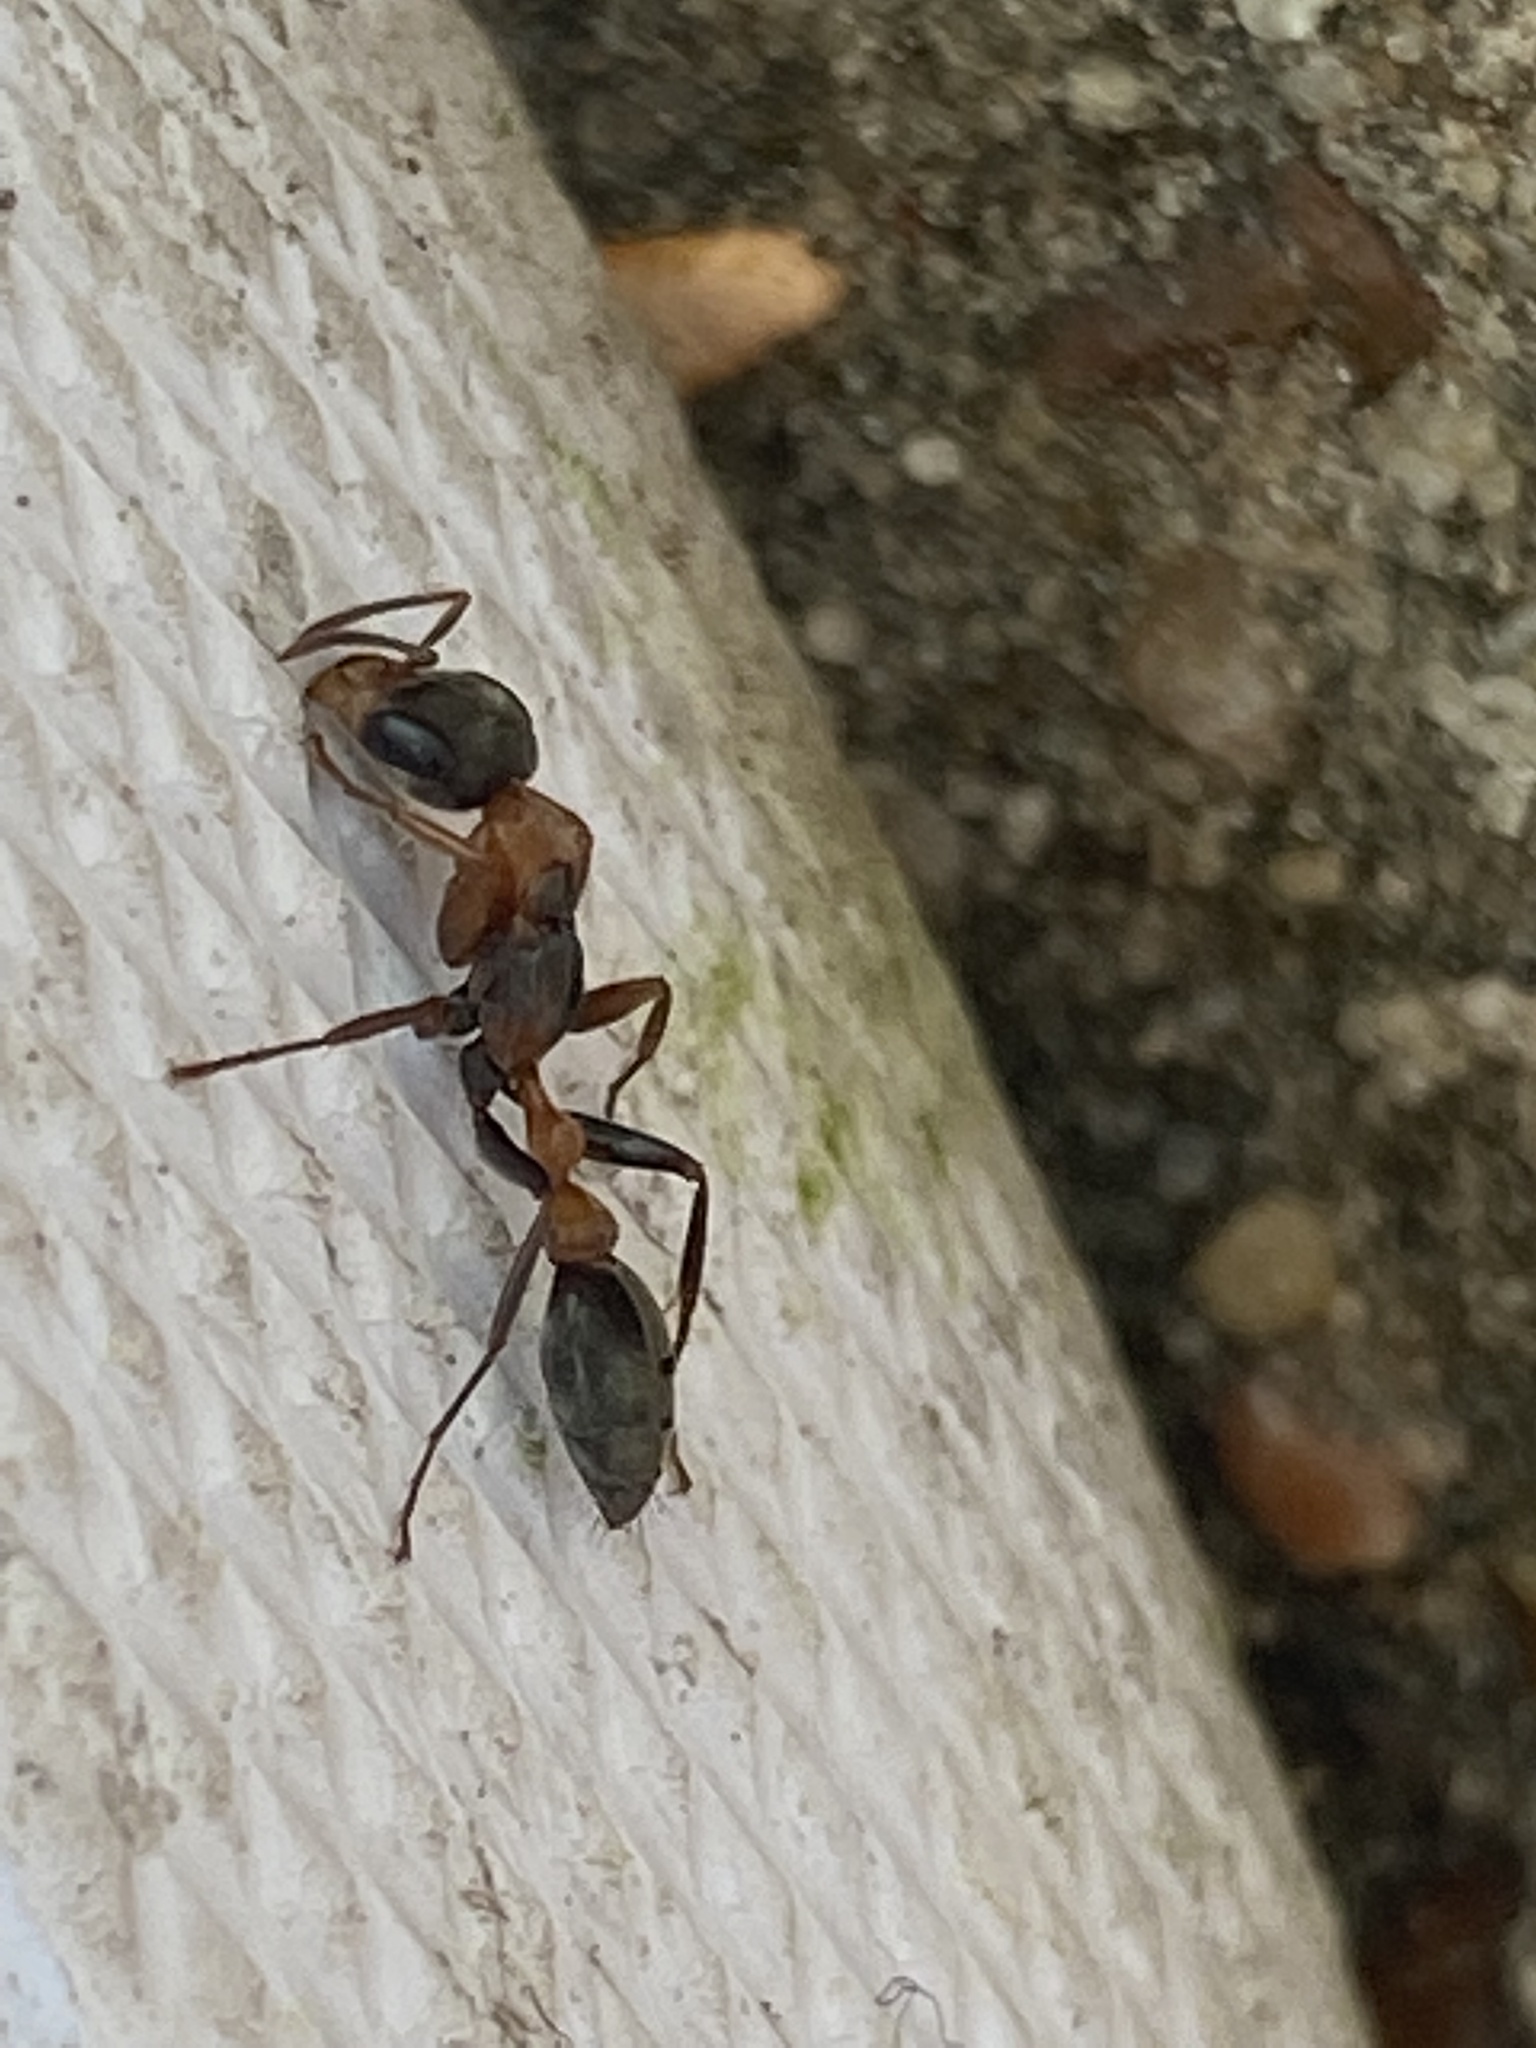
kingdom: Animalia
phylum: Arthropoda
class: Insecta
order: Hymenoptera
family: Formicidae
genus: Pseudomyrmex
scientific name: Pseudomyrmex gracilis
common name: Graceful twig ant
